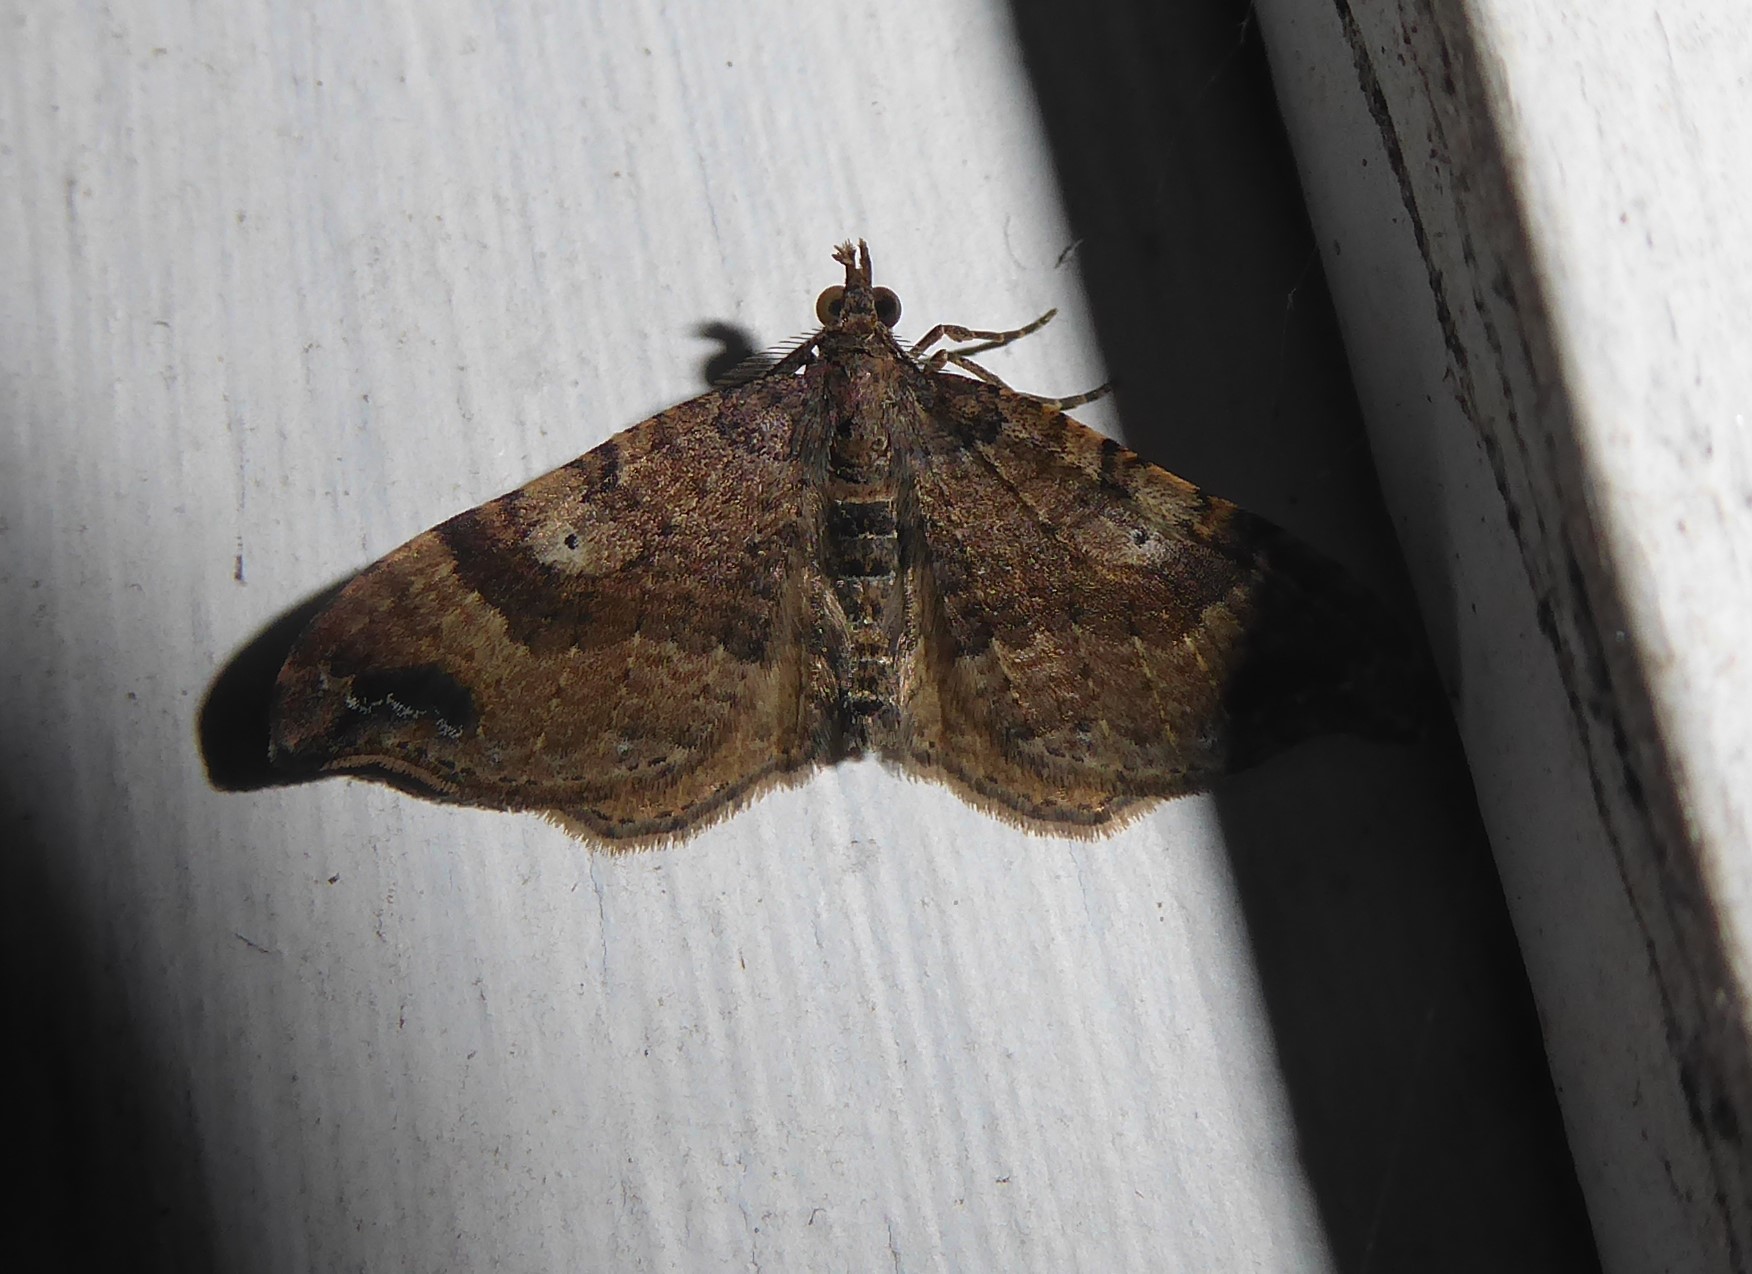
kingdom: Animalia
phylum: Arthropoda
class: Insecta
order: Lepidoptera
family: Geometridae
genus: Homodotis
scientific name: Homodotis megaspilata
